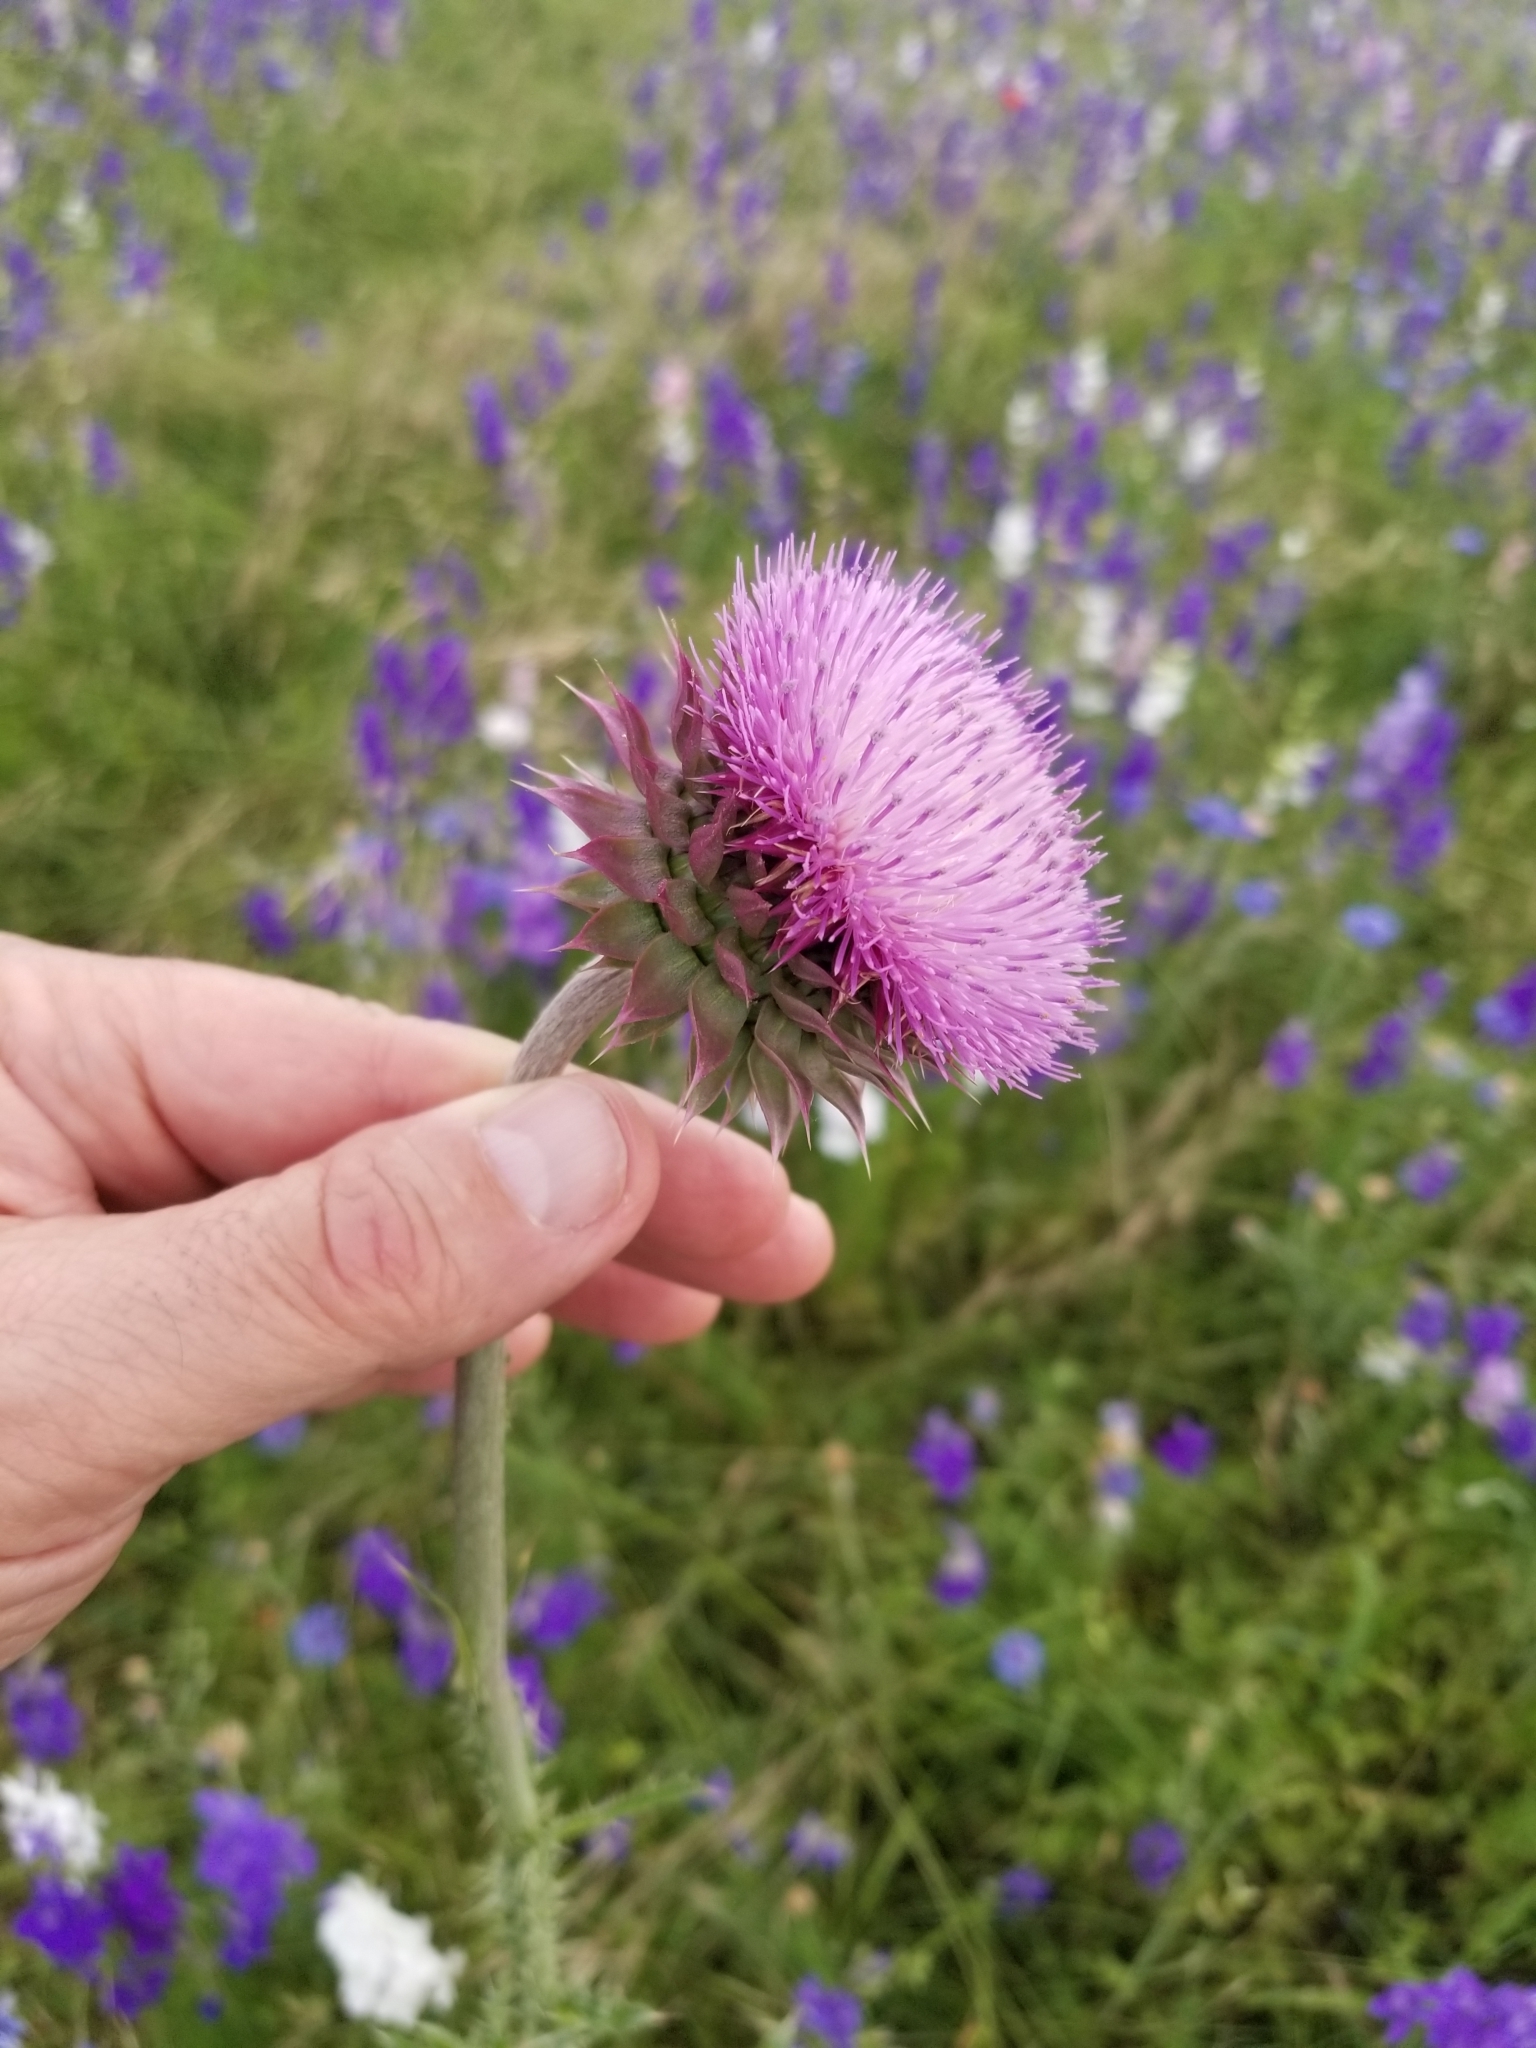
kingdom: Plantae
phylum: Tracheophyta
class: Magnoliopsida
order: Asterales
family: Asteraceae
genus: Carduus
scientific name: Carduus nutans
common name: Musk thistle
